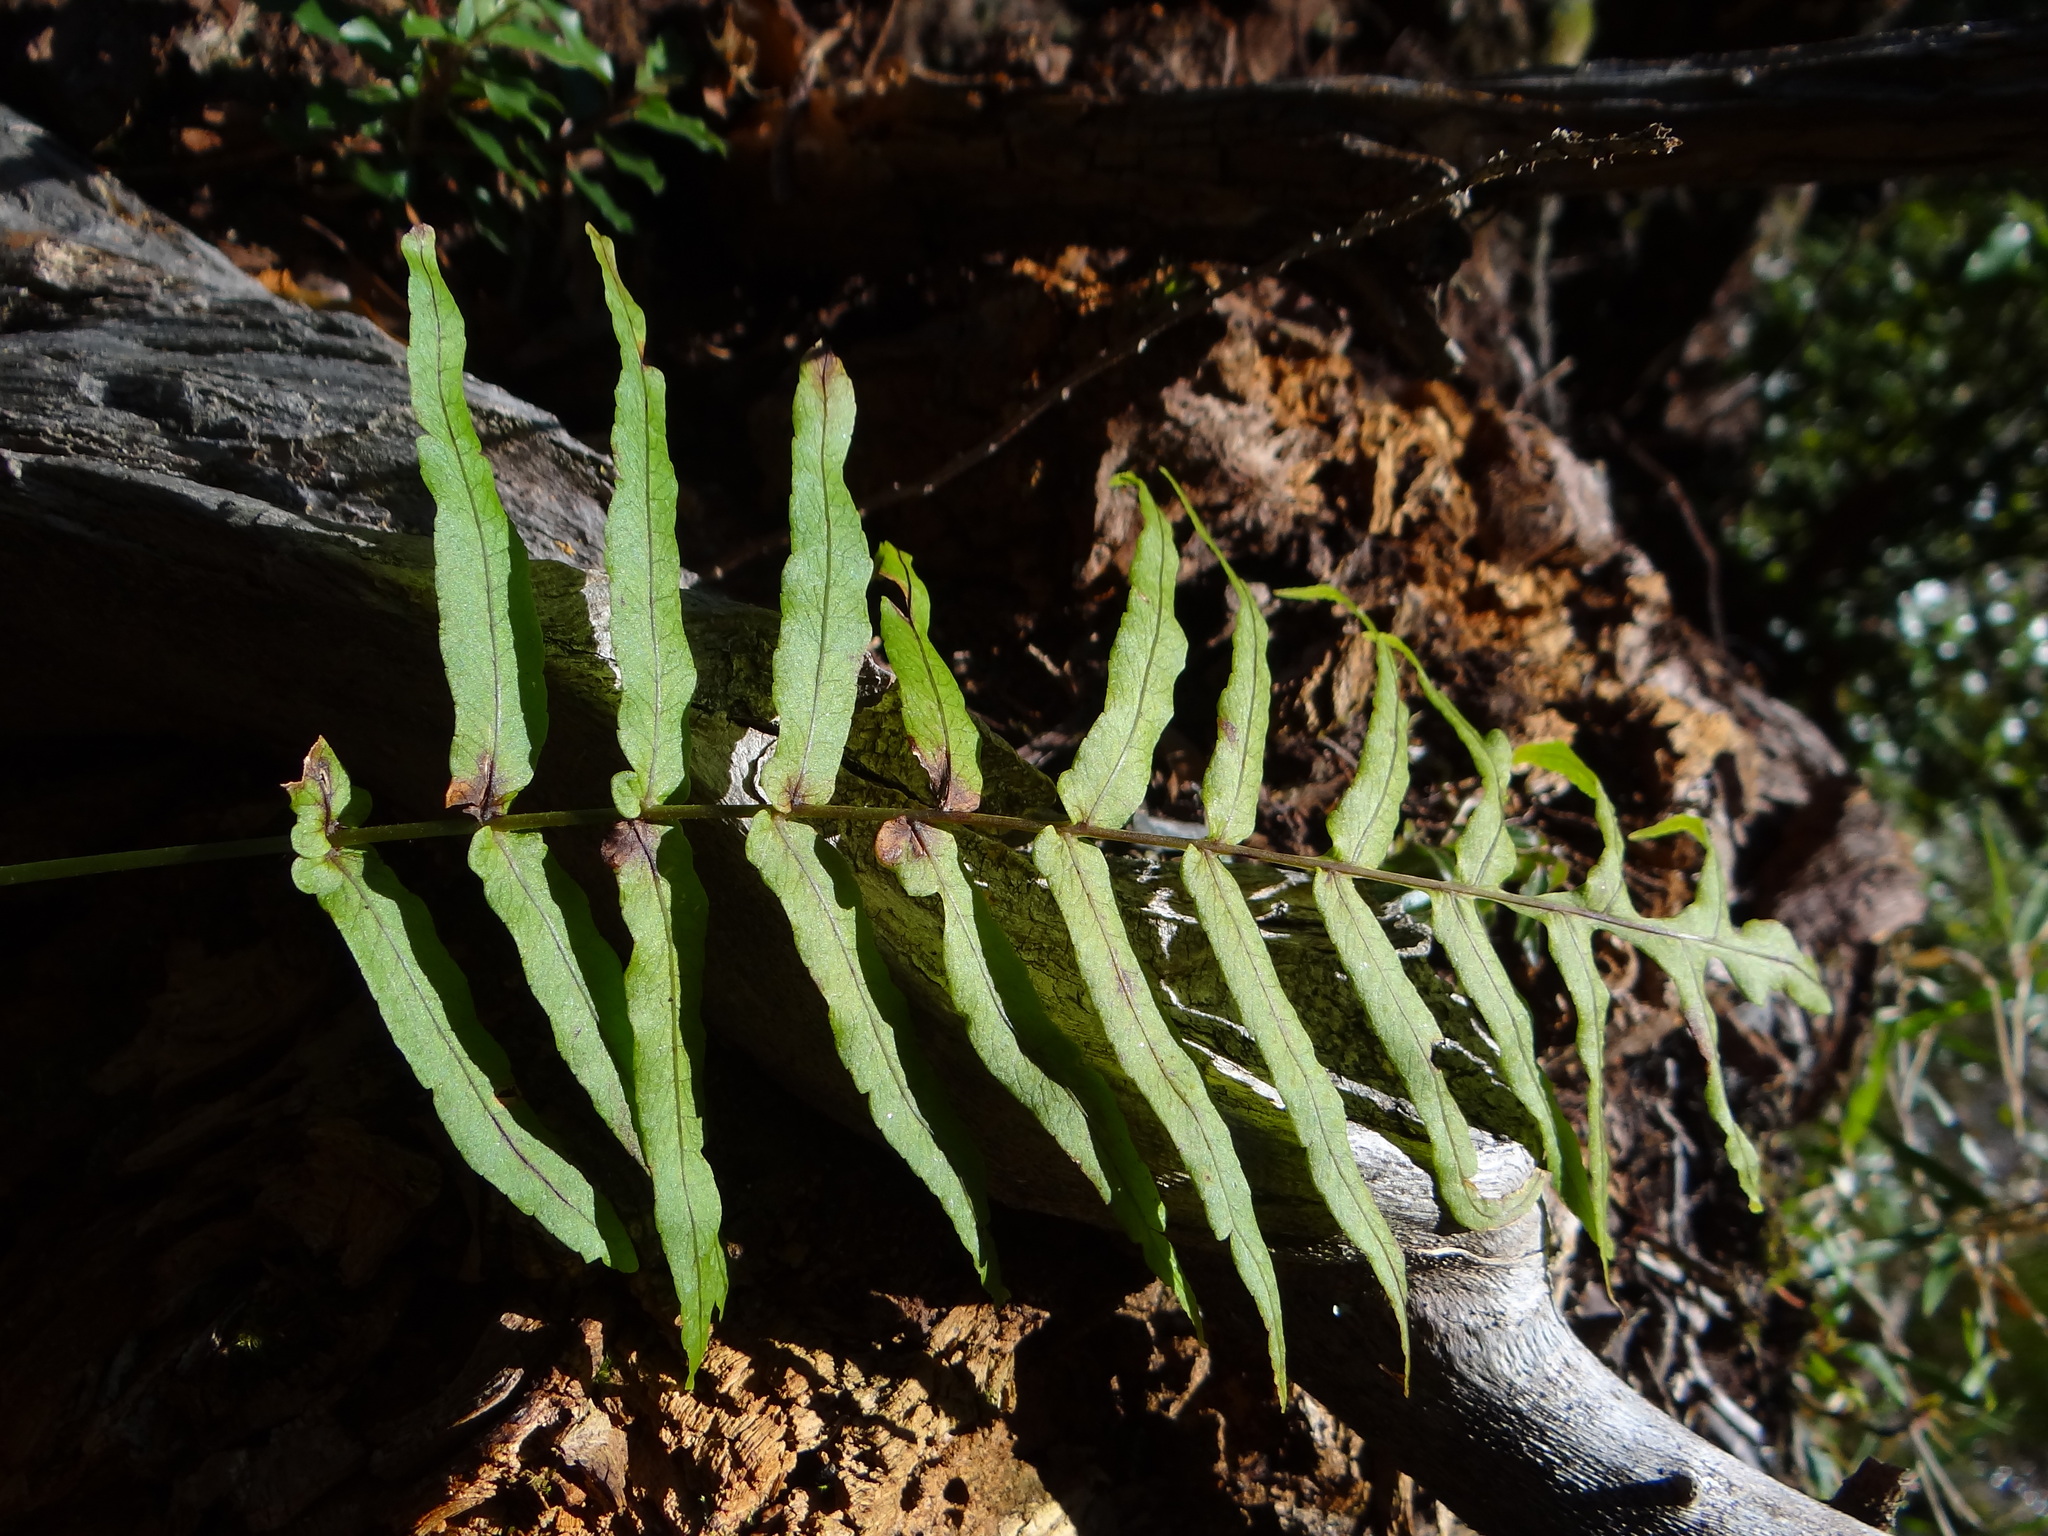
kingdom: Plantae
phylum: Tracheophyta
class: Polypodiopsida
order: Polypodiales
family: Polypodiaceae
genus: Goniophlebium
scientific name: Goniophlebium mengtzeense
